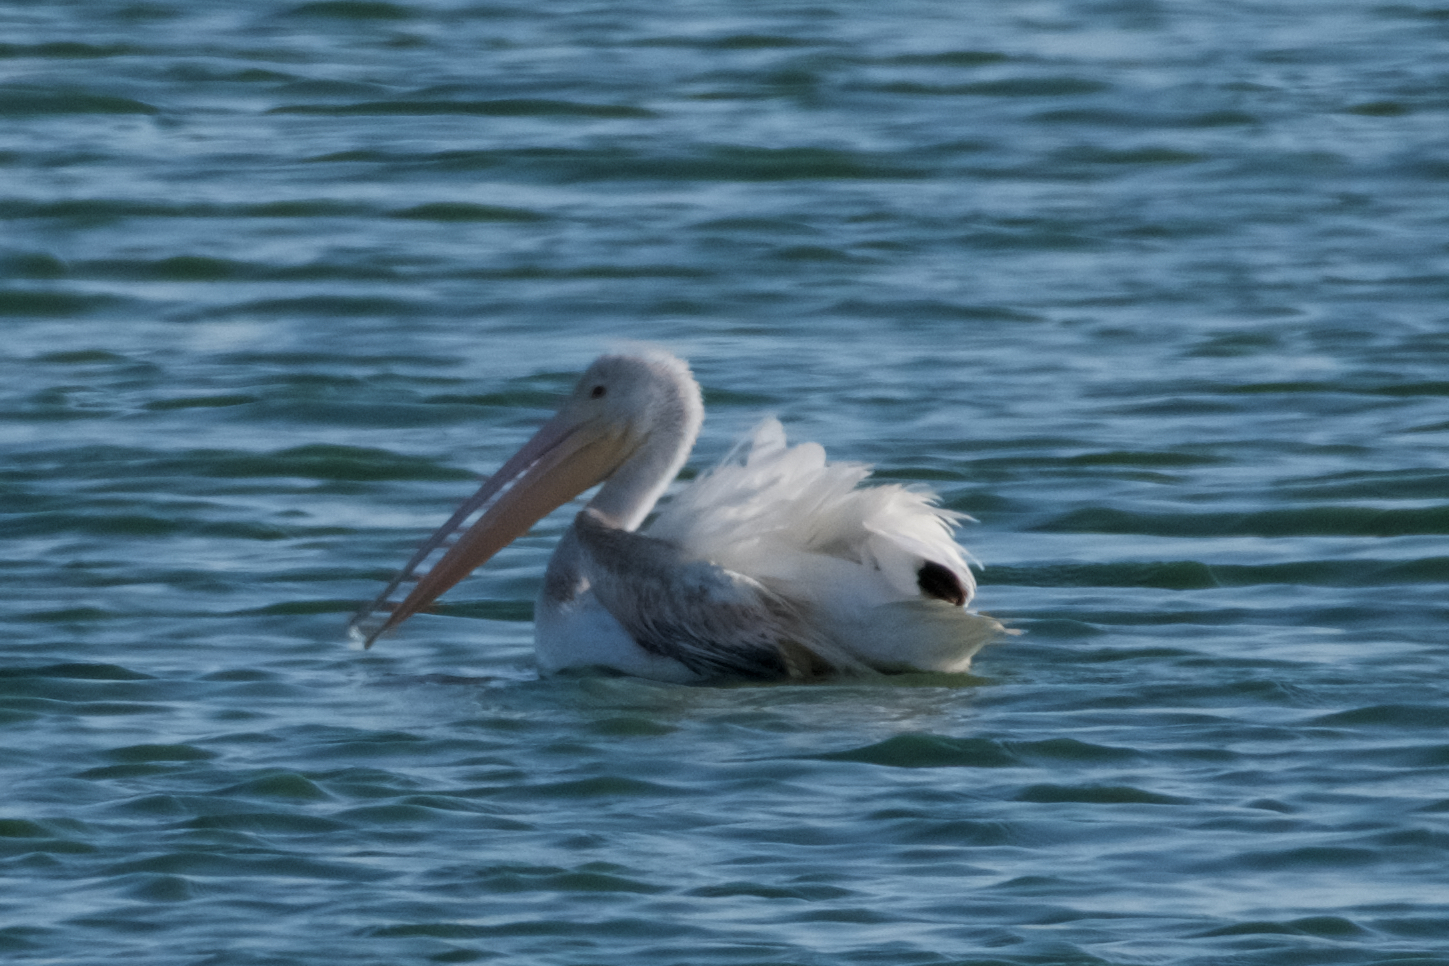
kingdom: Animalia
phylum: Chordata
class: Aves
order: Pelecaniformes
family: Pelecanidae
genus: Pelecanus
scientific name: Pelecanus erythrorhynchos
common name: American white pelican
